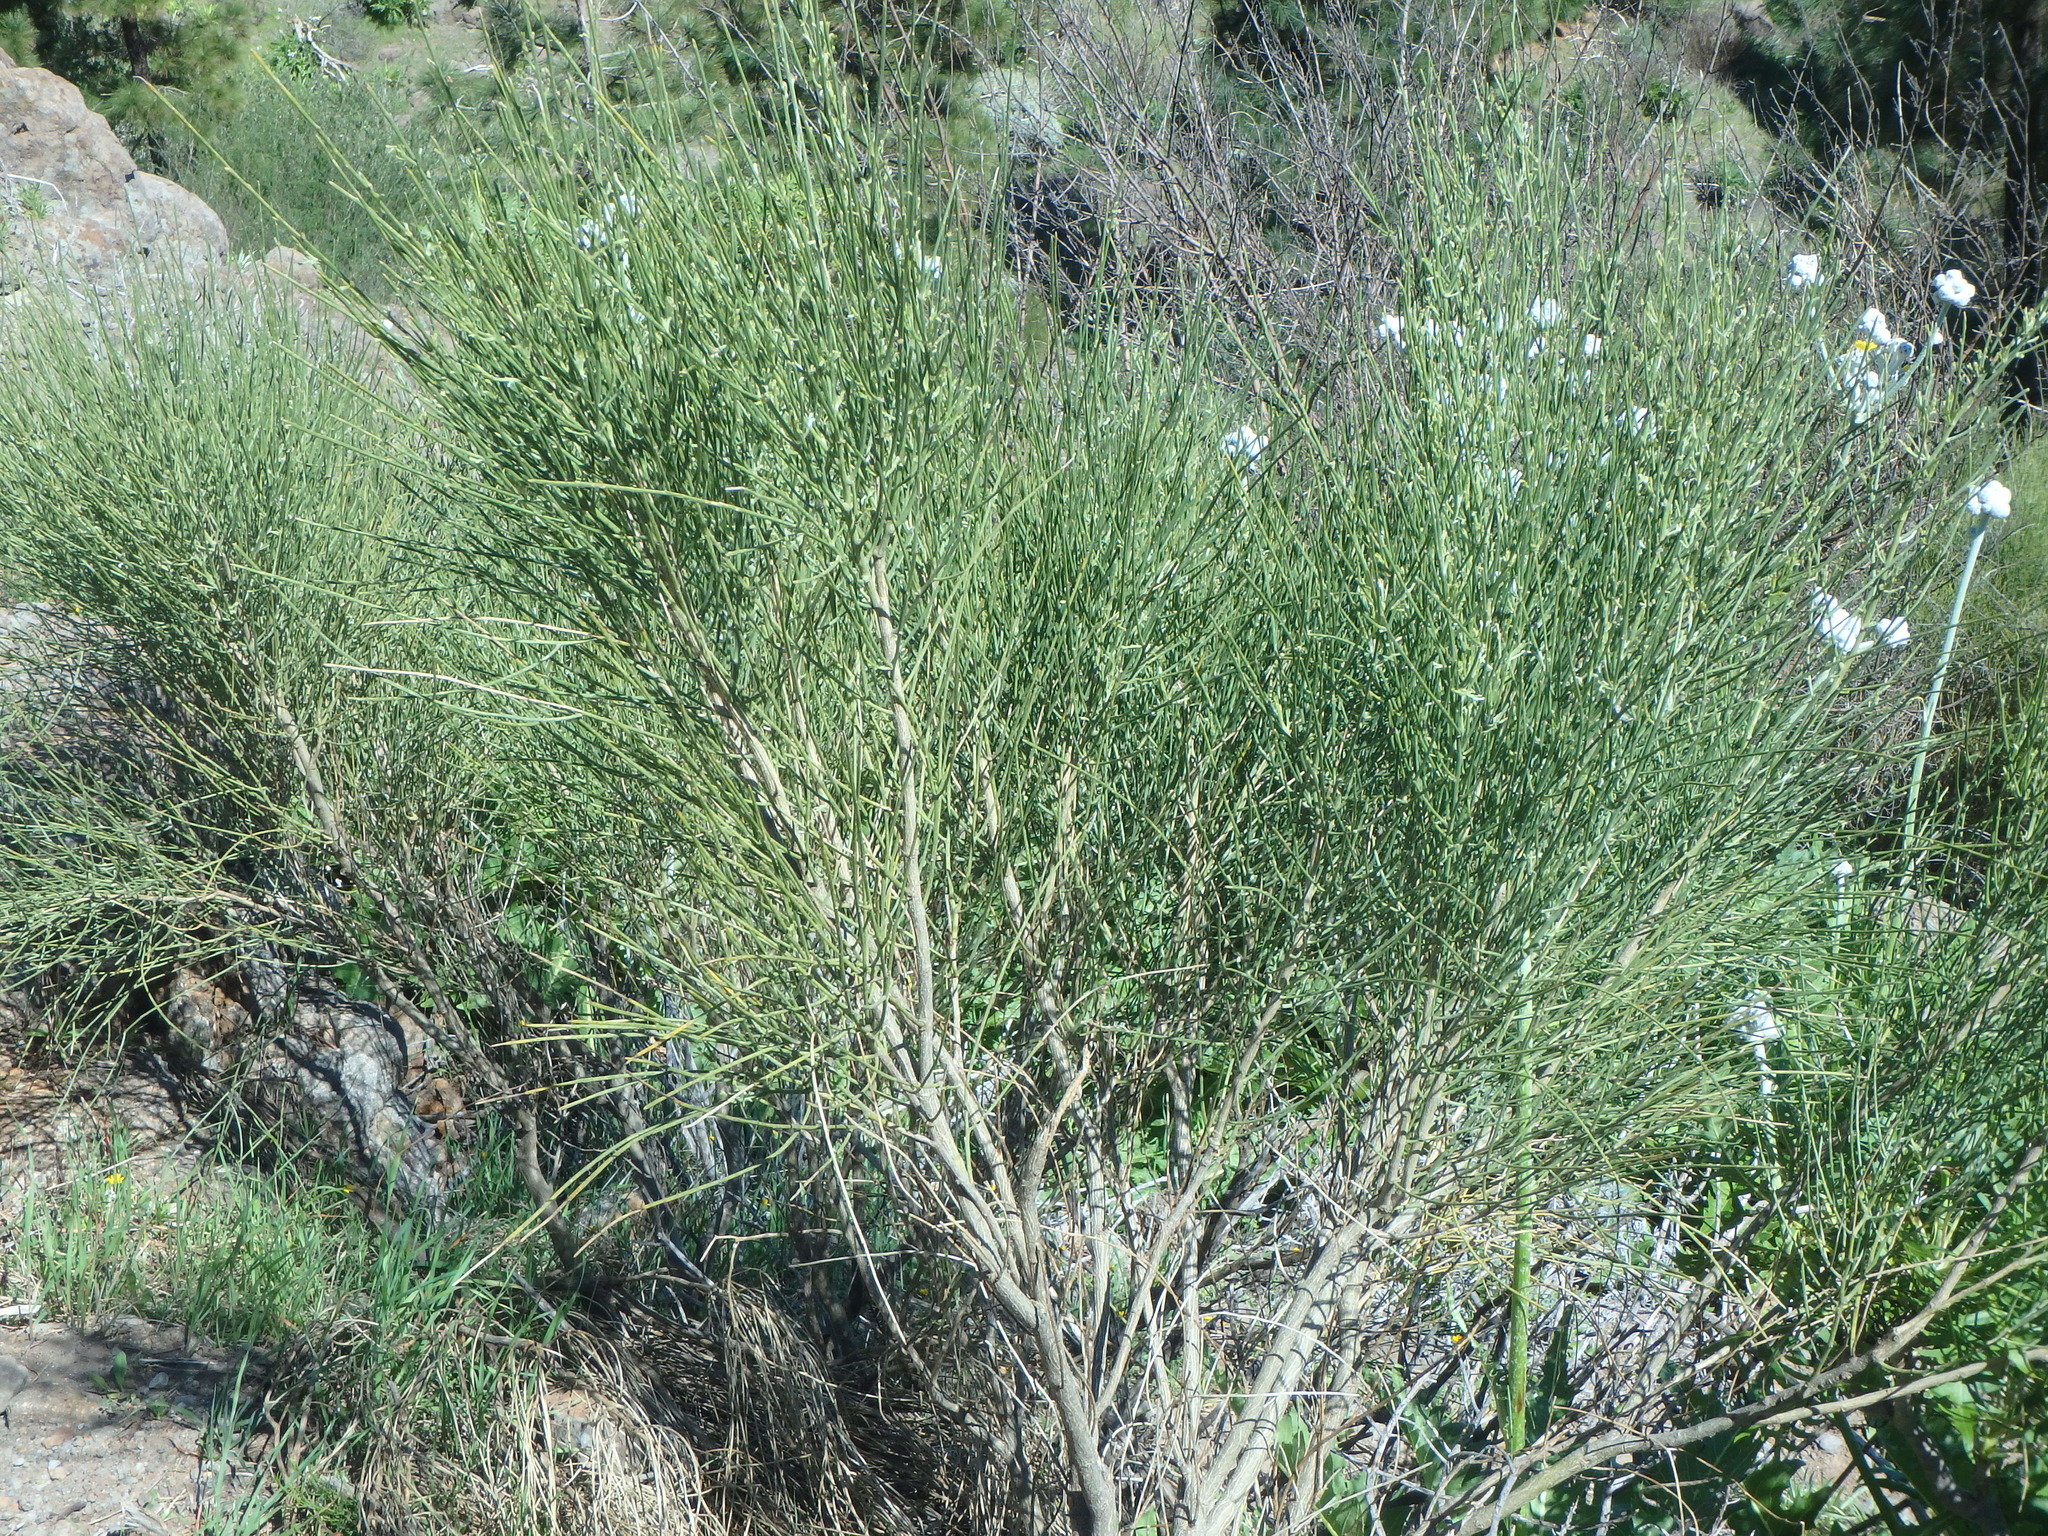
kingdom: Plantae
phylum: Tracheophyta
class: Magnoliopsida
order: Fabales
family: Fabaceae
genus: Retama
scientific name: Retama rhodorhizoides
